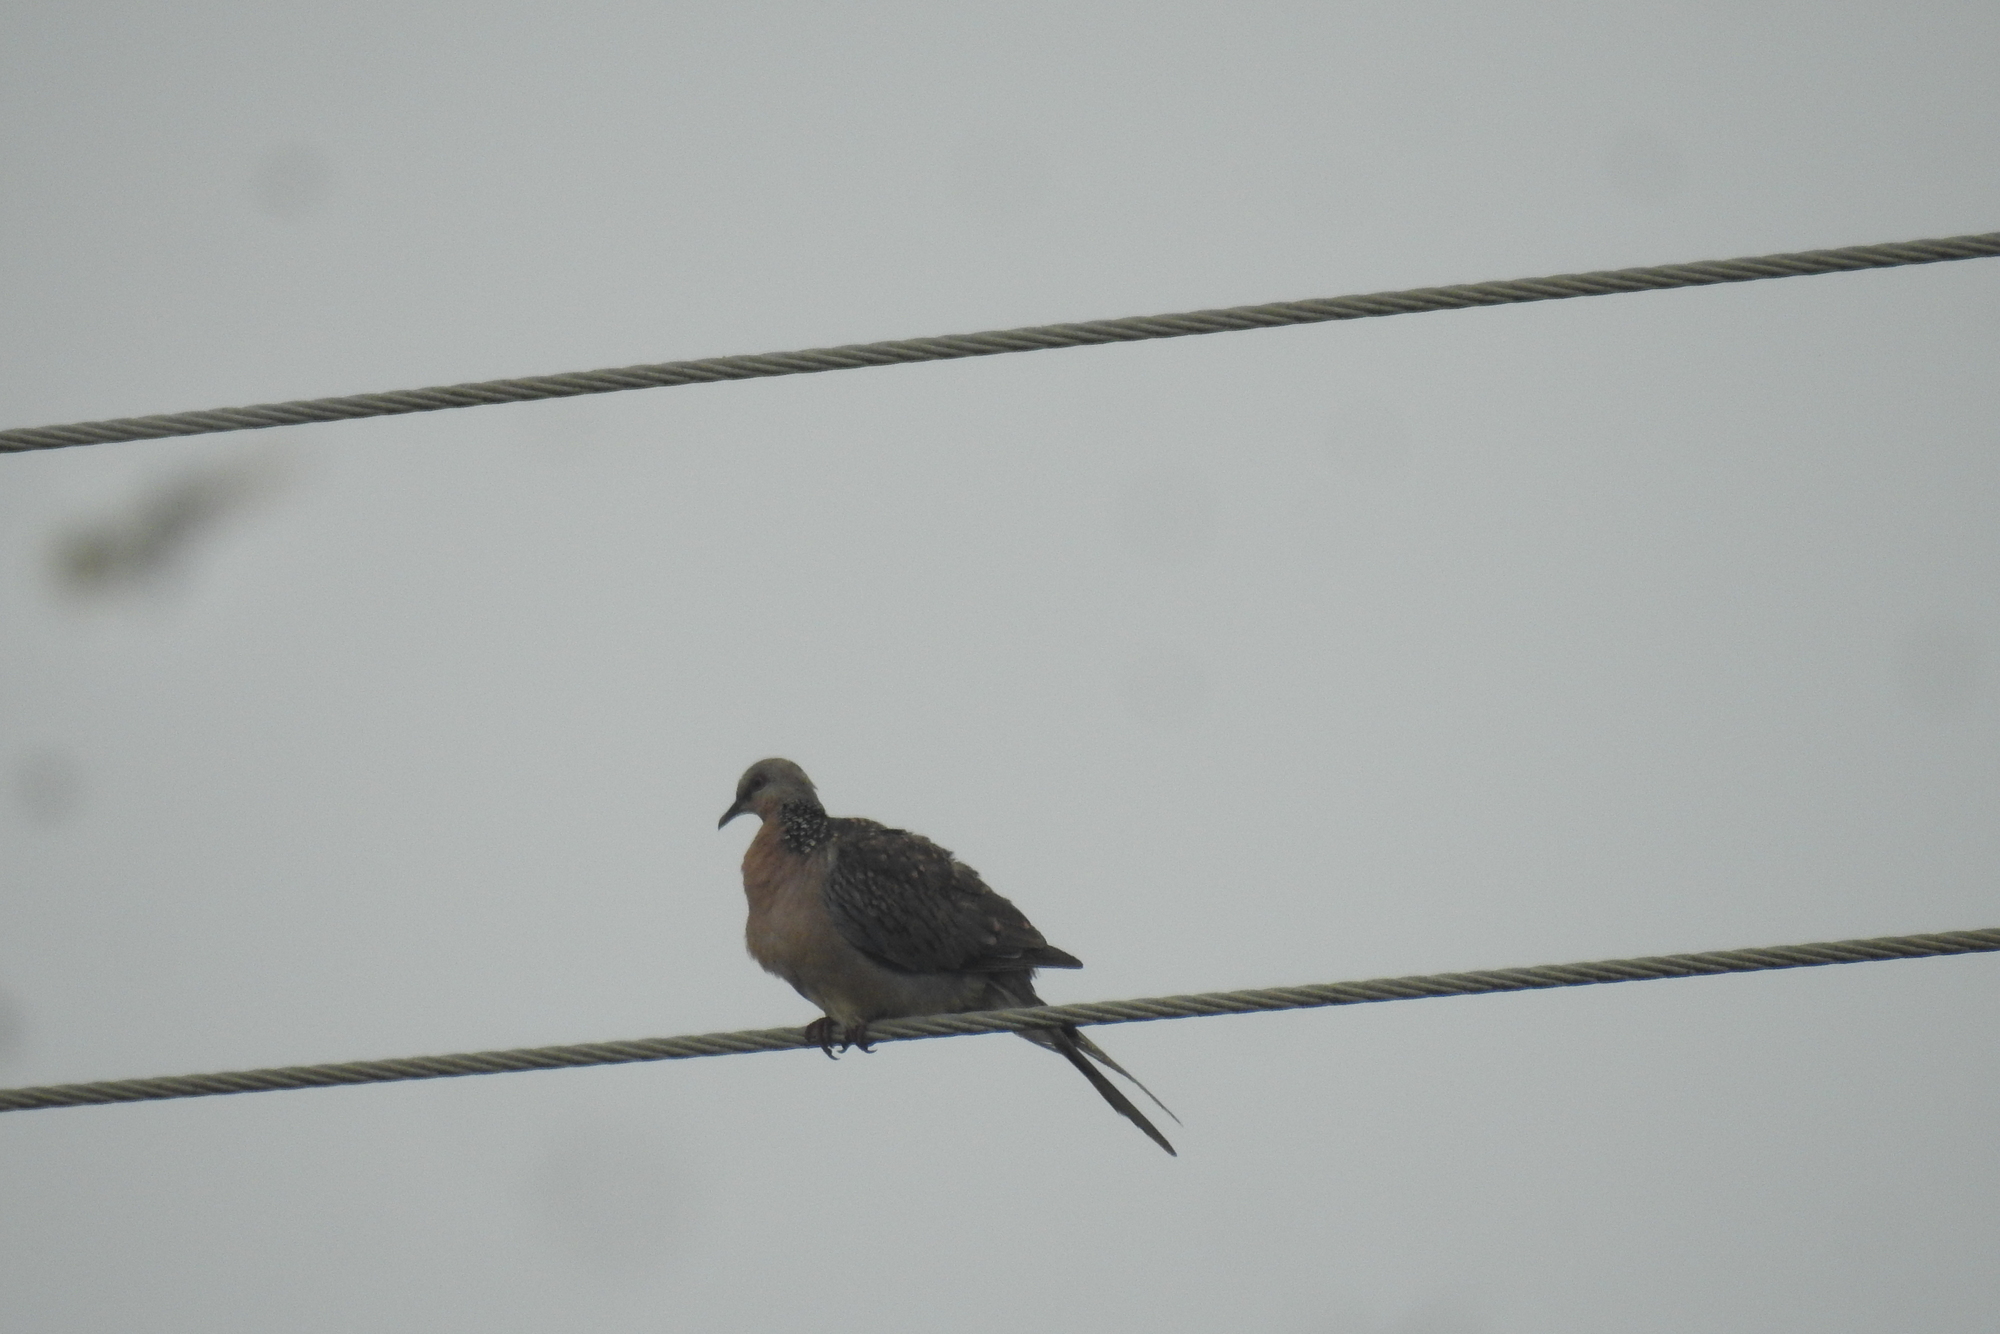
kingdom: Animalia
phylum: Chordata
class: Aves
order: Columbiformes
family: Columbidae
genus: Spilopelia
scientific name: Spilopelia chinensis
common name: Spotted dove
